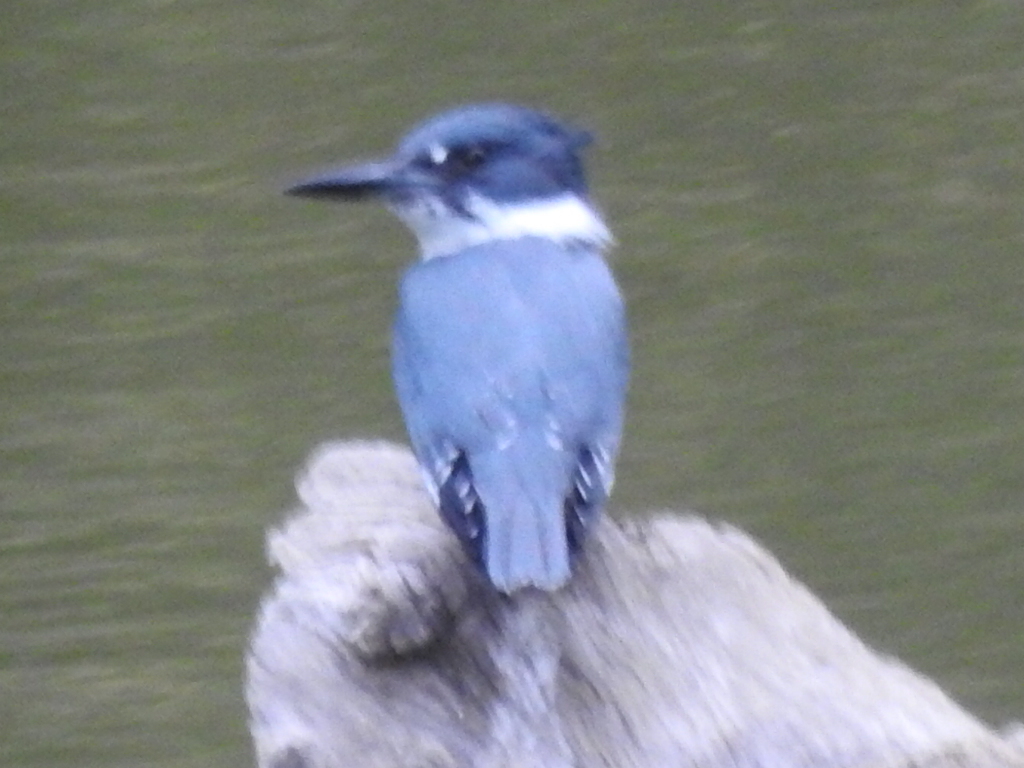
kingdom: Animalia
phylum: Chordata
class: Aves
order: Coraciiformes
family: Alcedinidae
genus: Megaceryle
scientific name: Megaceryle alcyon
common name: Belted kingfisher
